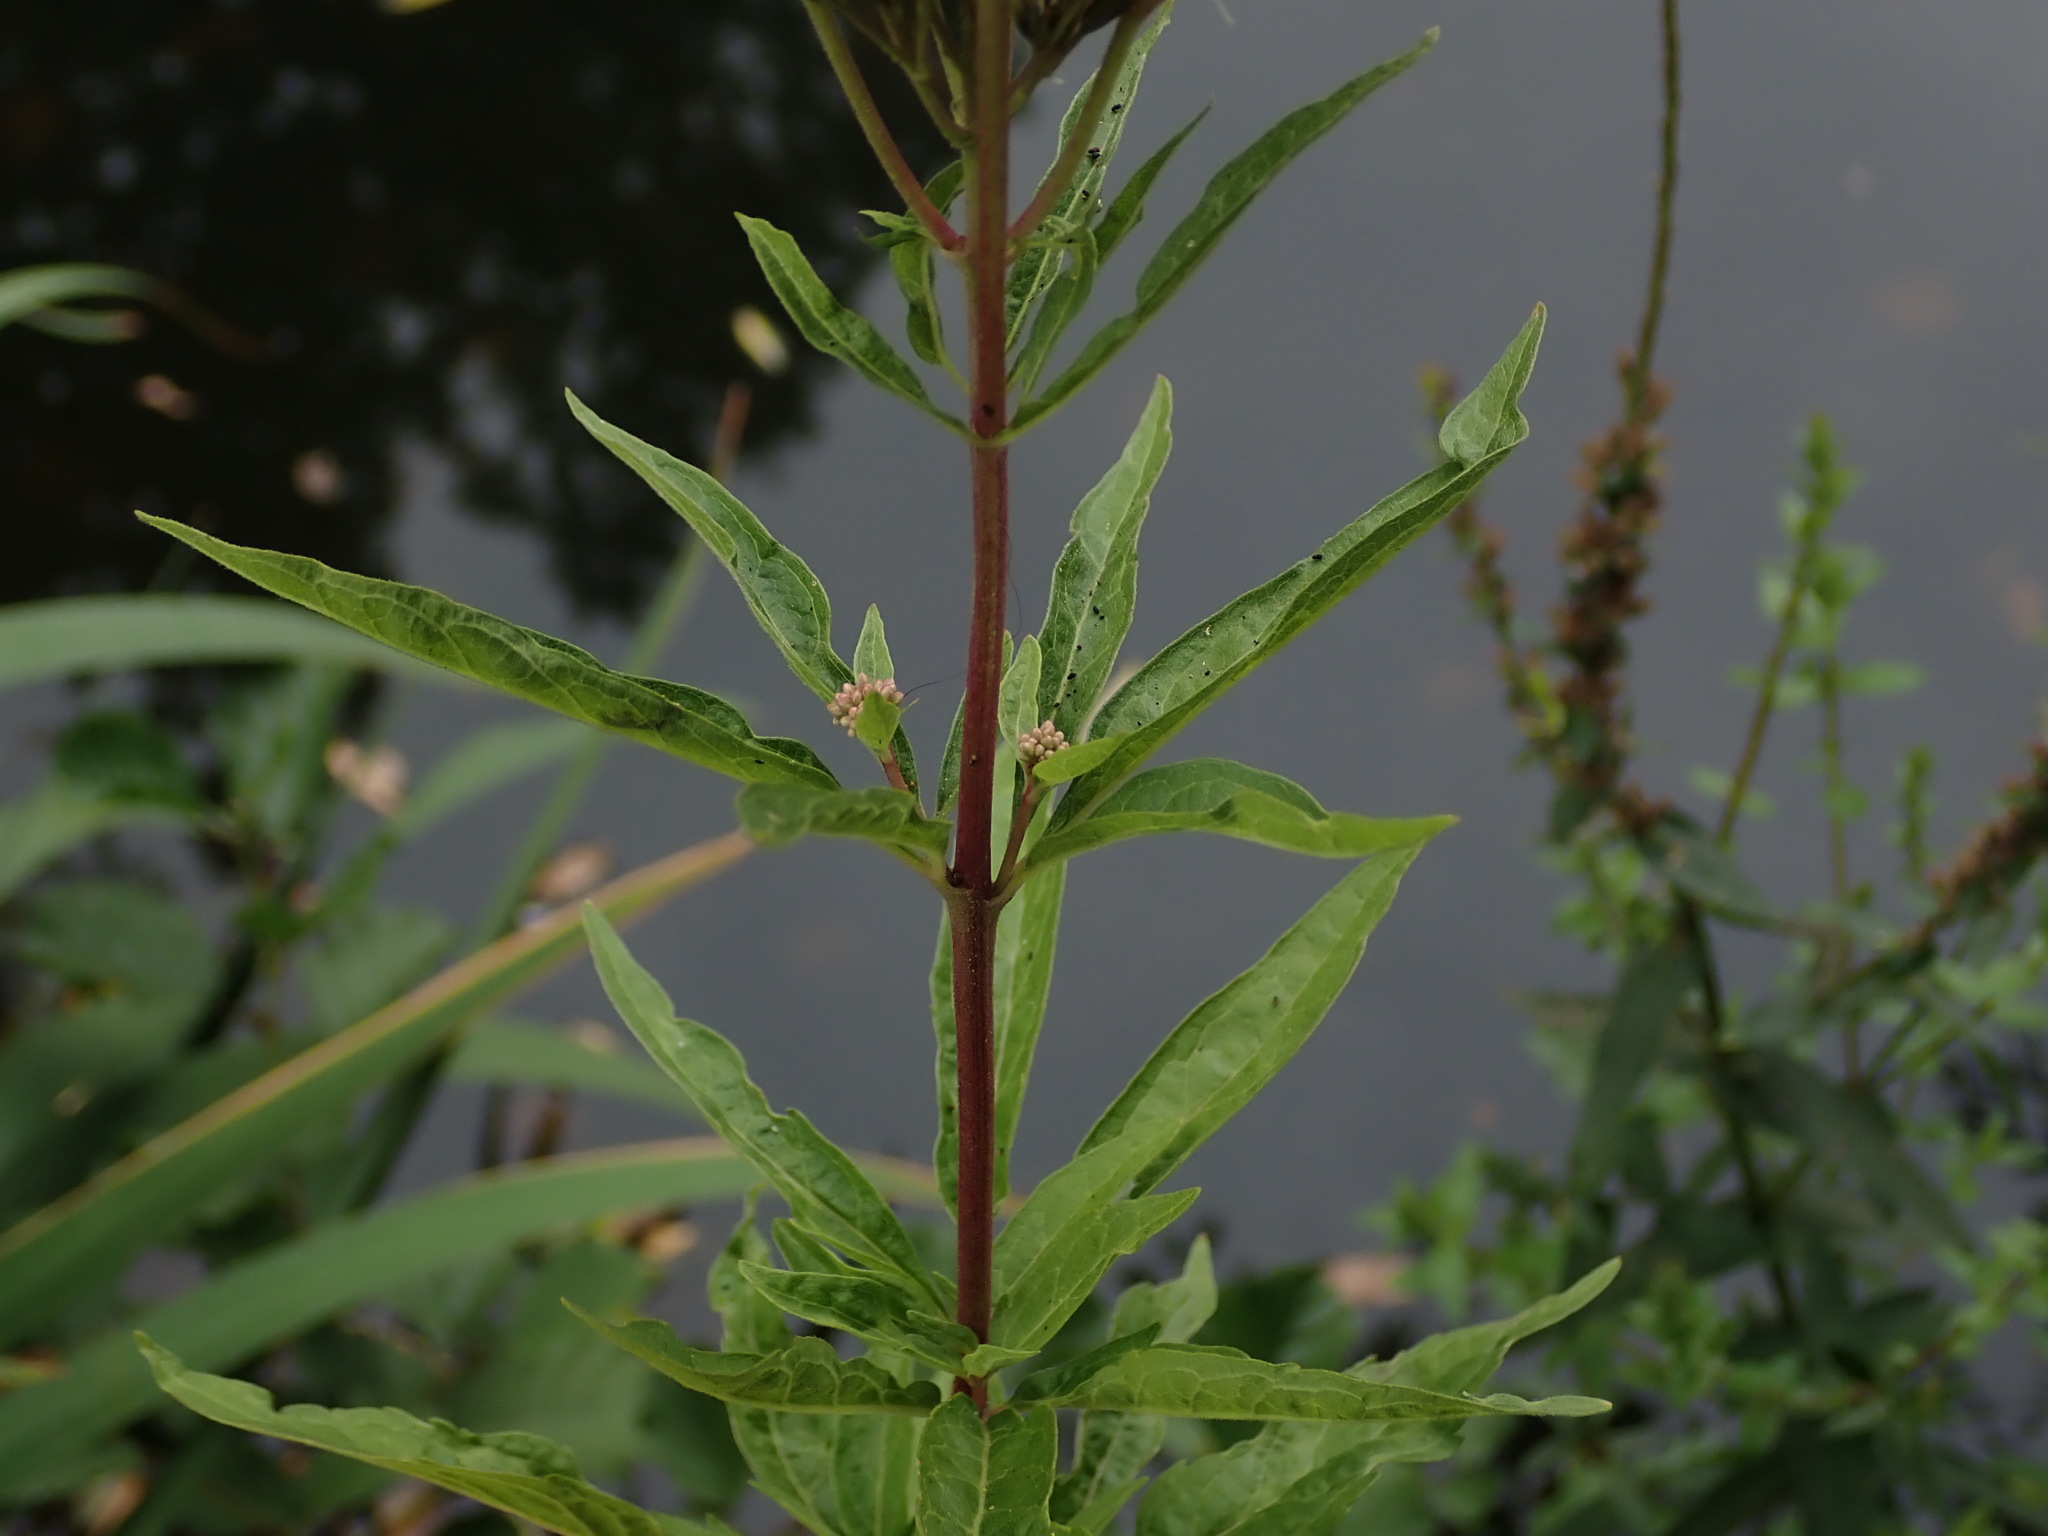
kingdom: Plantae
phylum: Tracheophyta
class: Magnoliopsida
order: Asterales
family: Asteraceae
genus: Eupatorium
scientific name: Eupatorium cannabinum
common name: Hemp-agrimony
